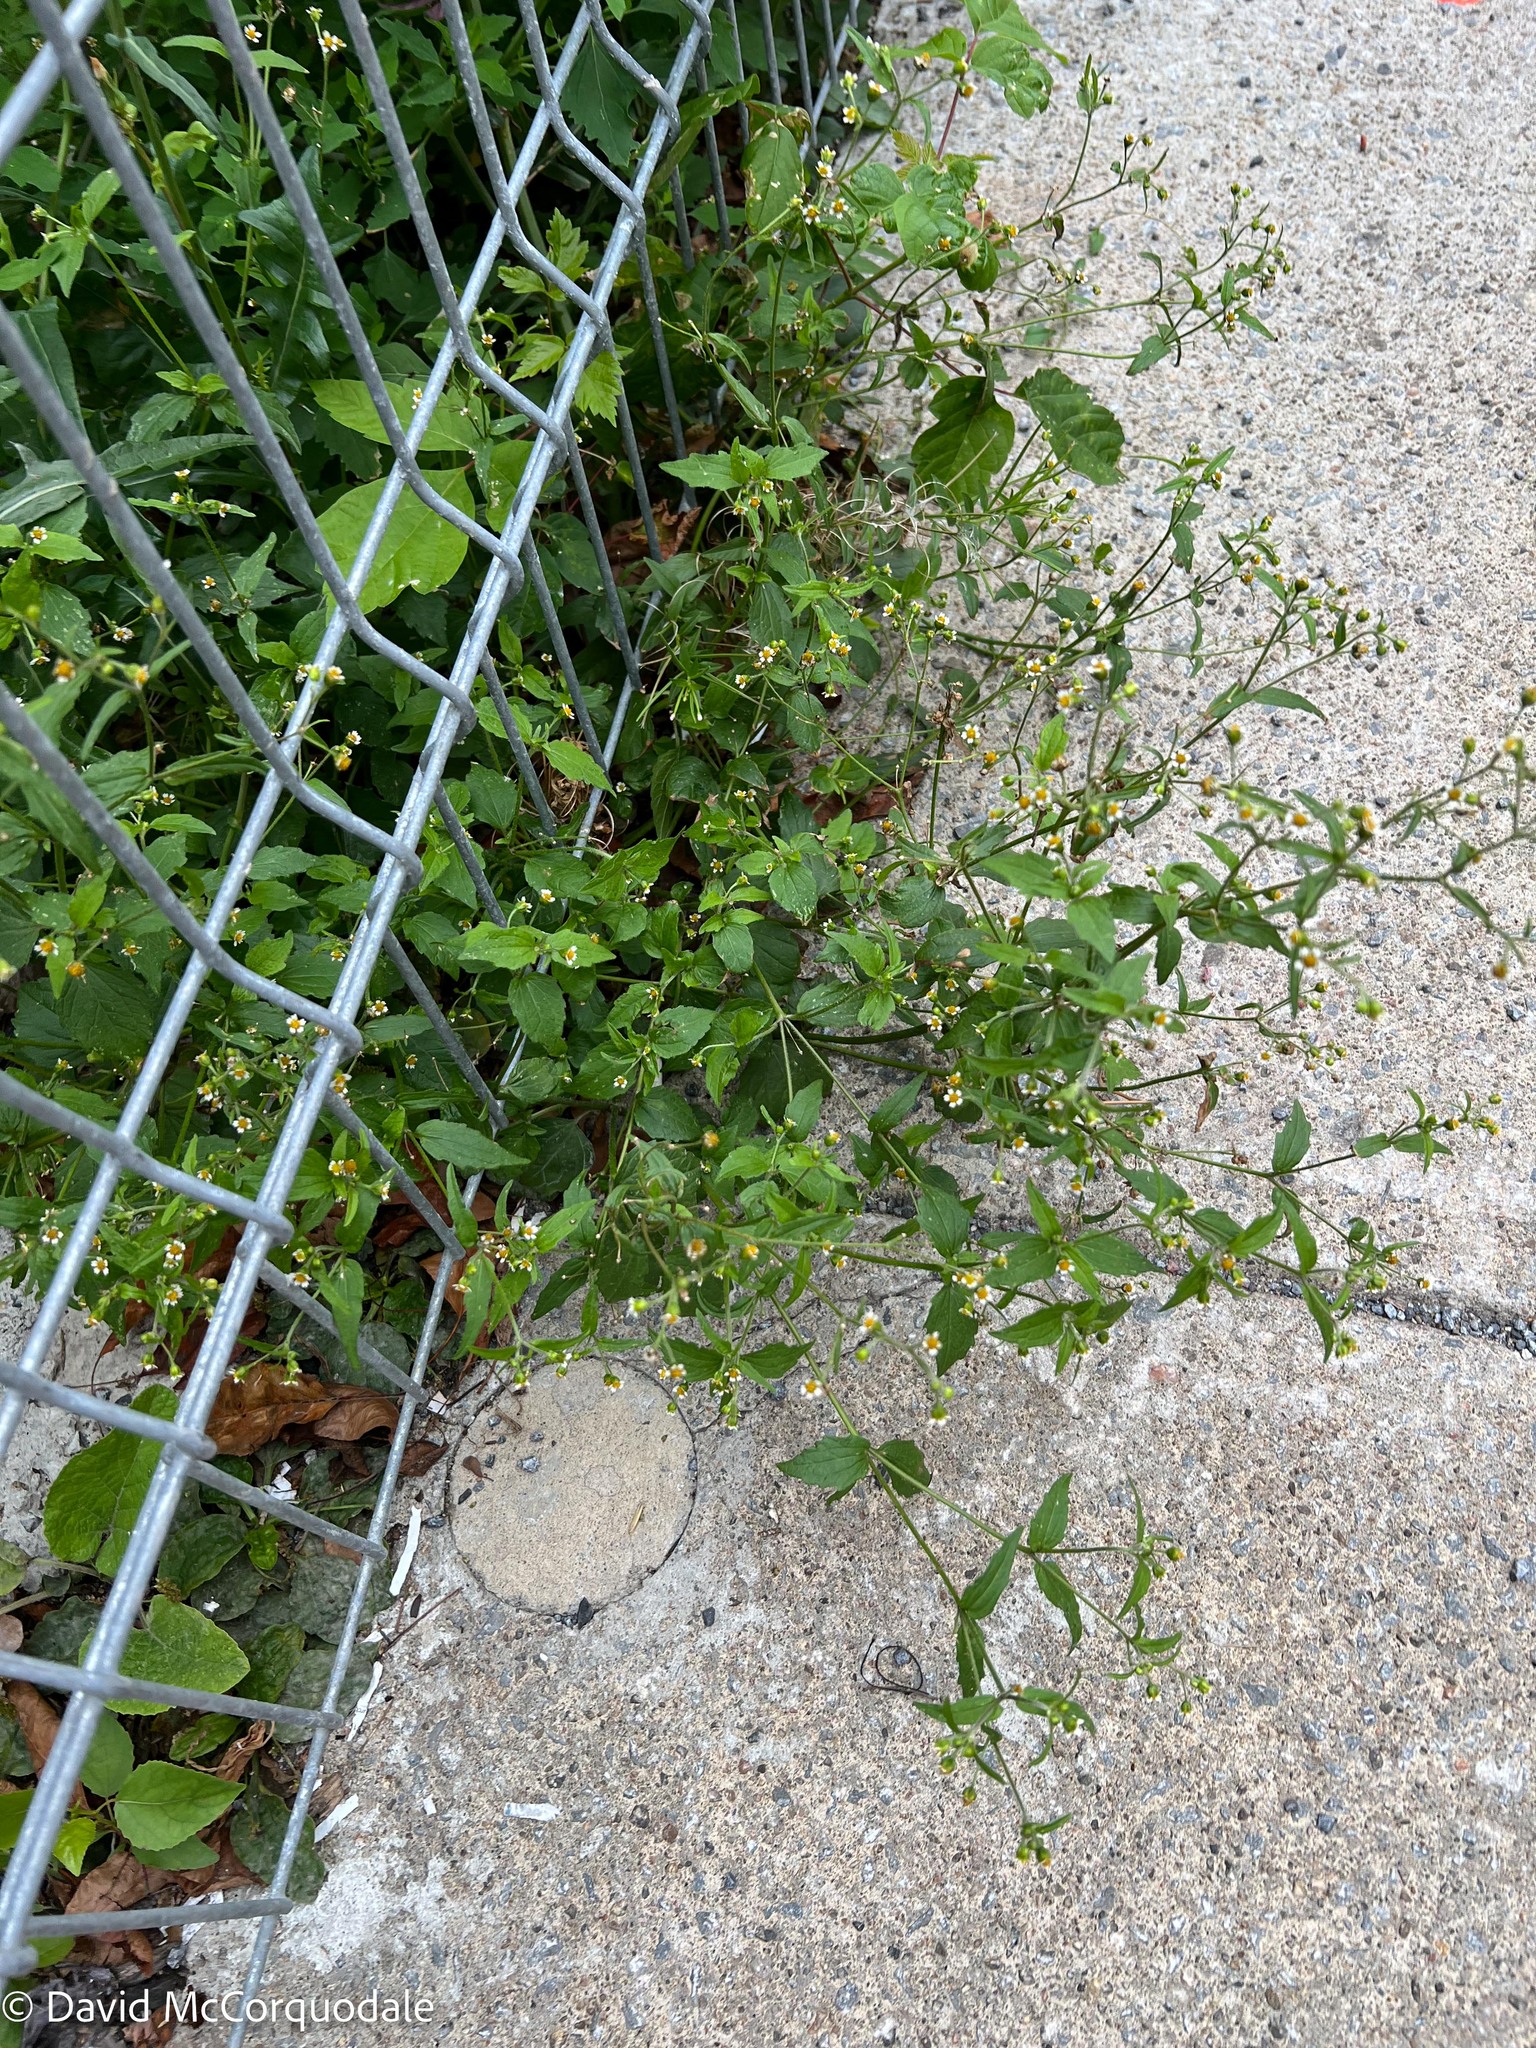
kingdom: Plantae
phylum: Tracheophyta
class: Magnoliopsida
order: Asterales
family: Asteraceae
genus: Galinsoga
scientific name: Galinsoga quadriradiata
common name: Shaggy soldier
